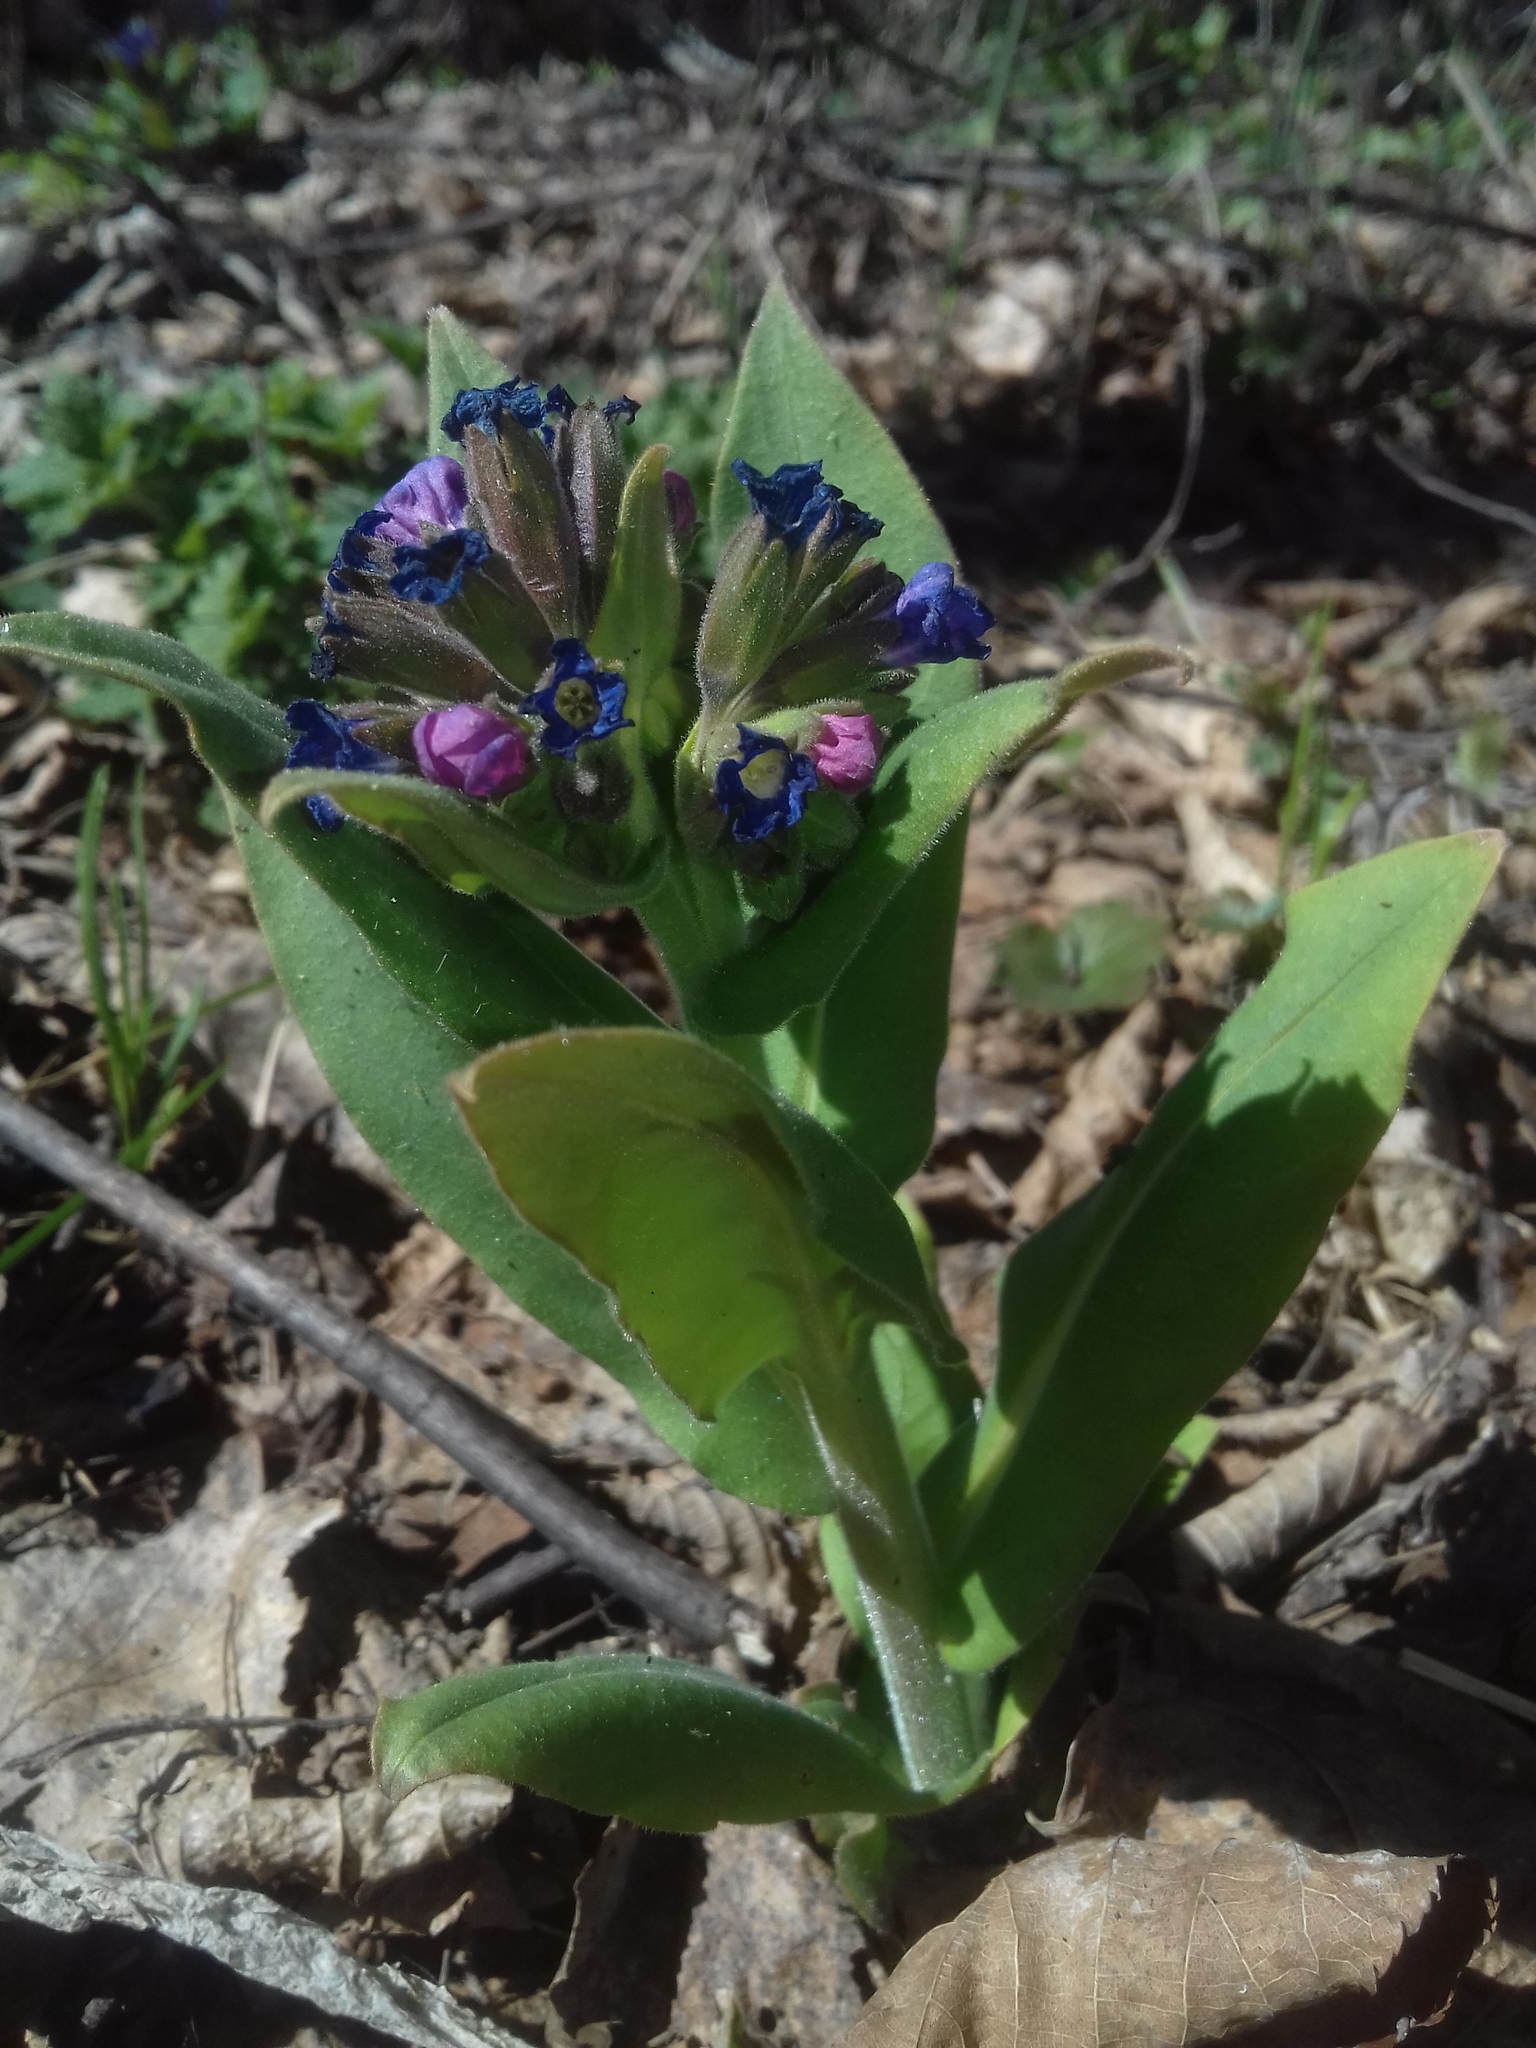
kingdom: Plantae
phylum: Tracheophyta
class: Magnoliopsida
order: Boraginales
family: Boraginaceae
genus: Pulmonaria
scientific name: Pulmonaria mollis
